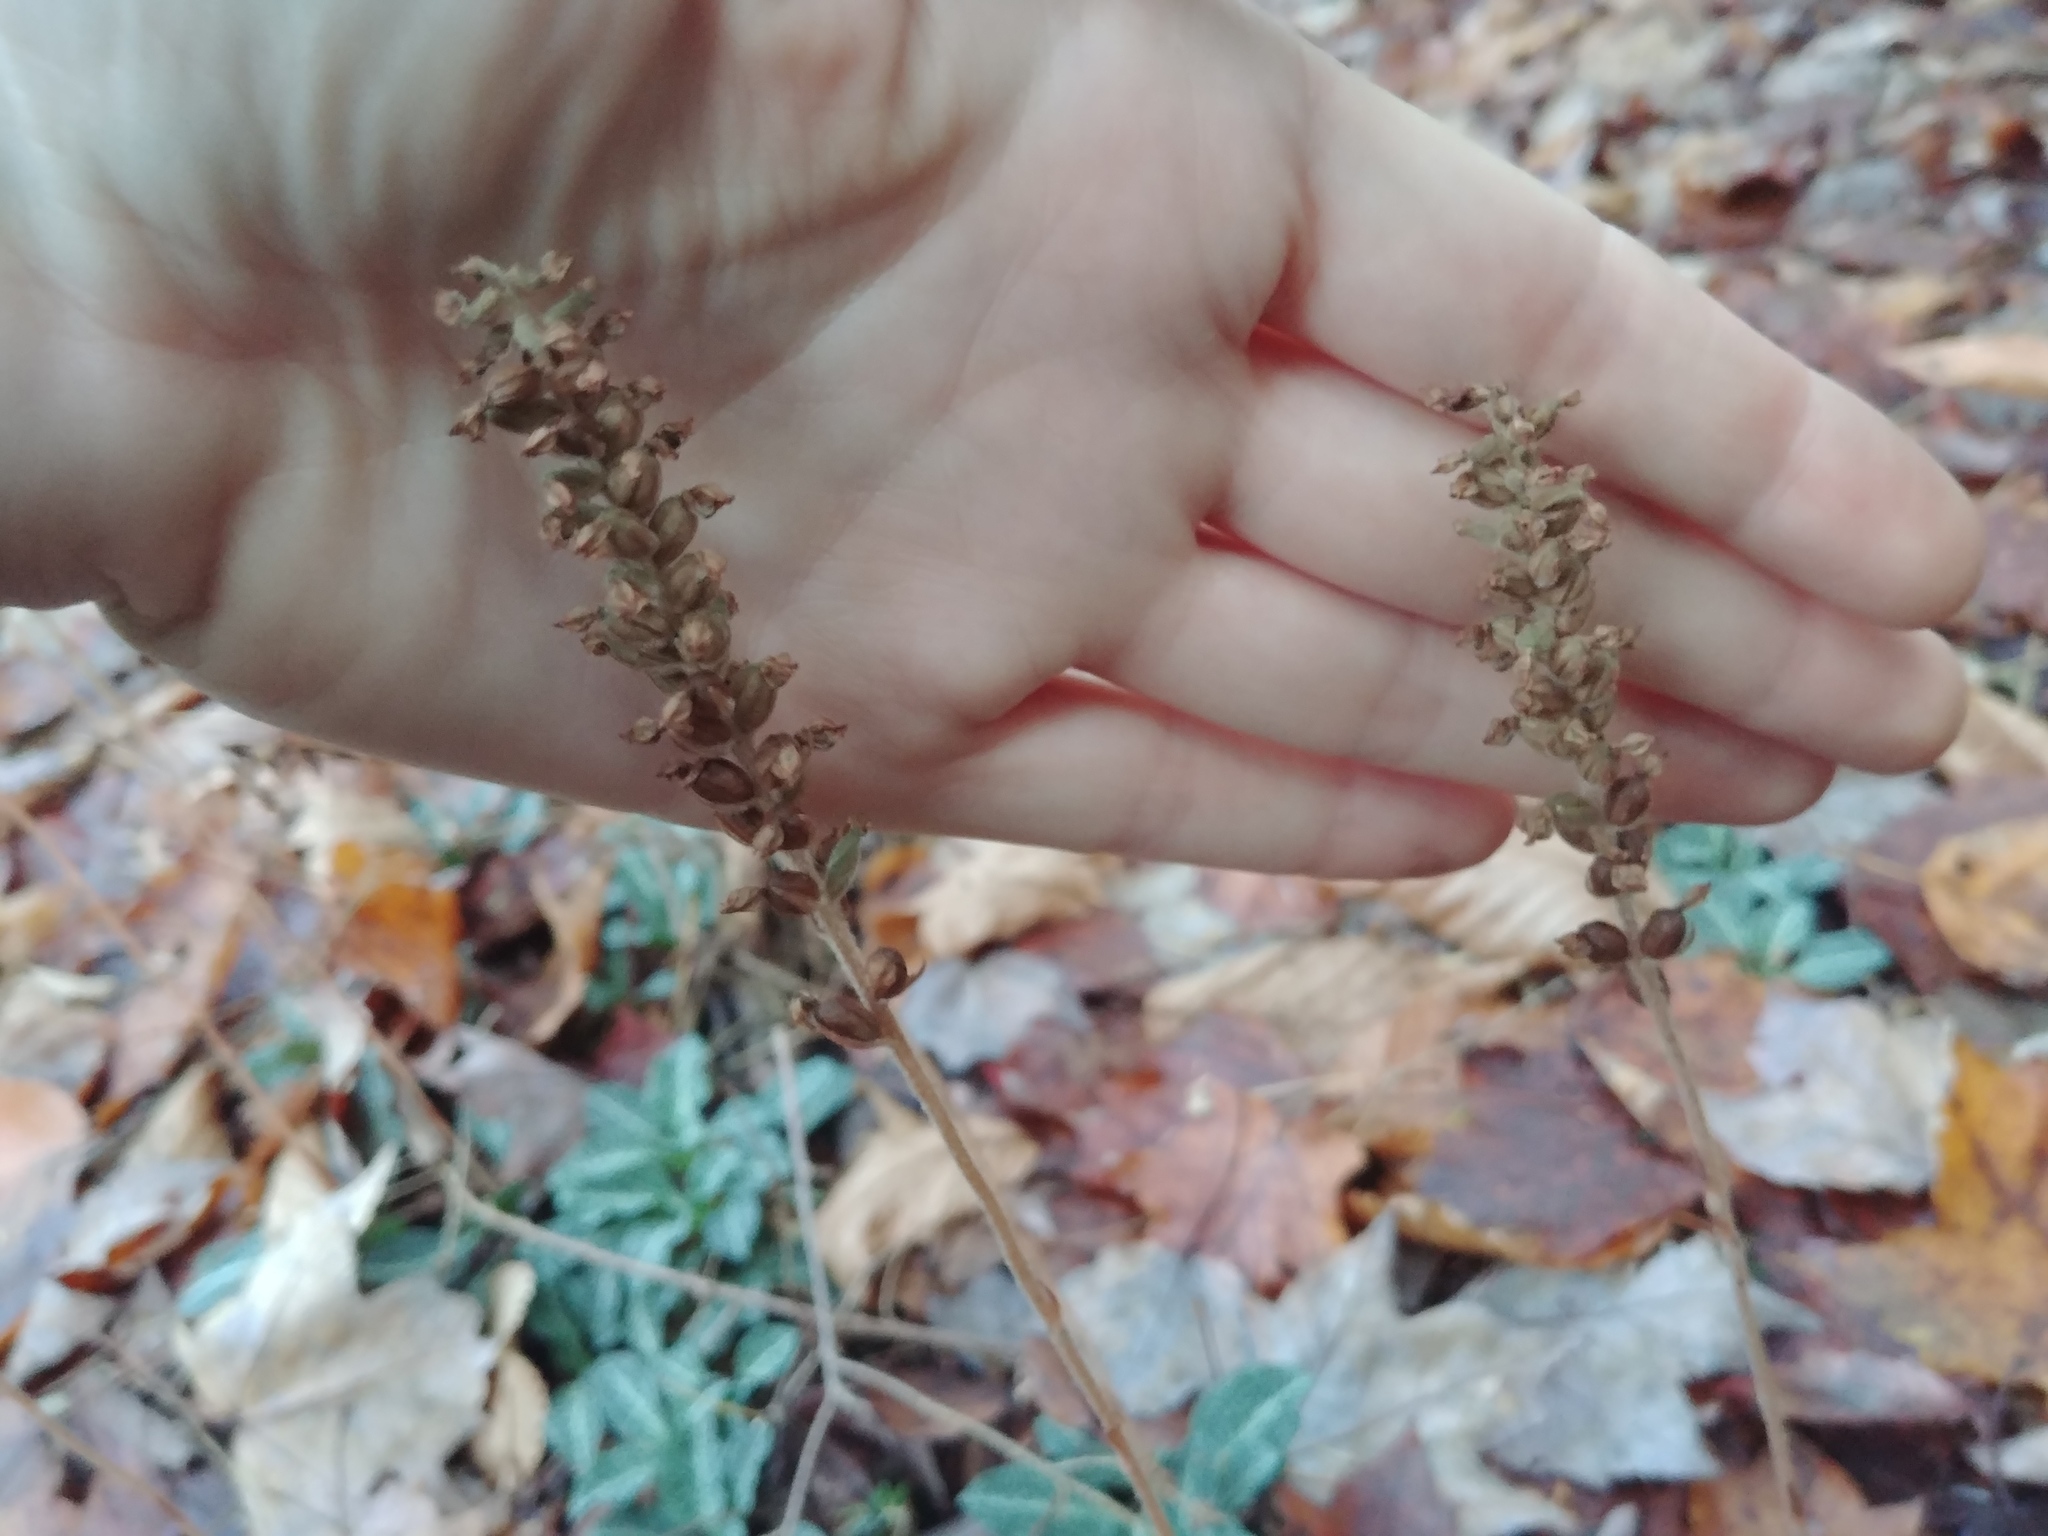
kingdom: Plantae
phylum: Tracheophyta
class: Liliopsida
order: Asparagales
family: Orchidaceae
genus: Goodyera
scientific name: Goodyera pubescens
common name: Downy rattlesnake-plantain
